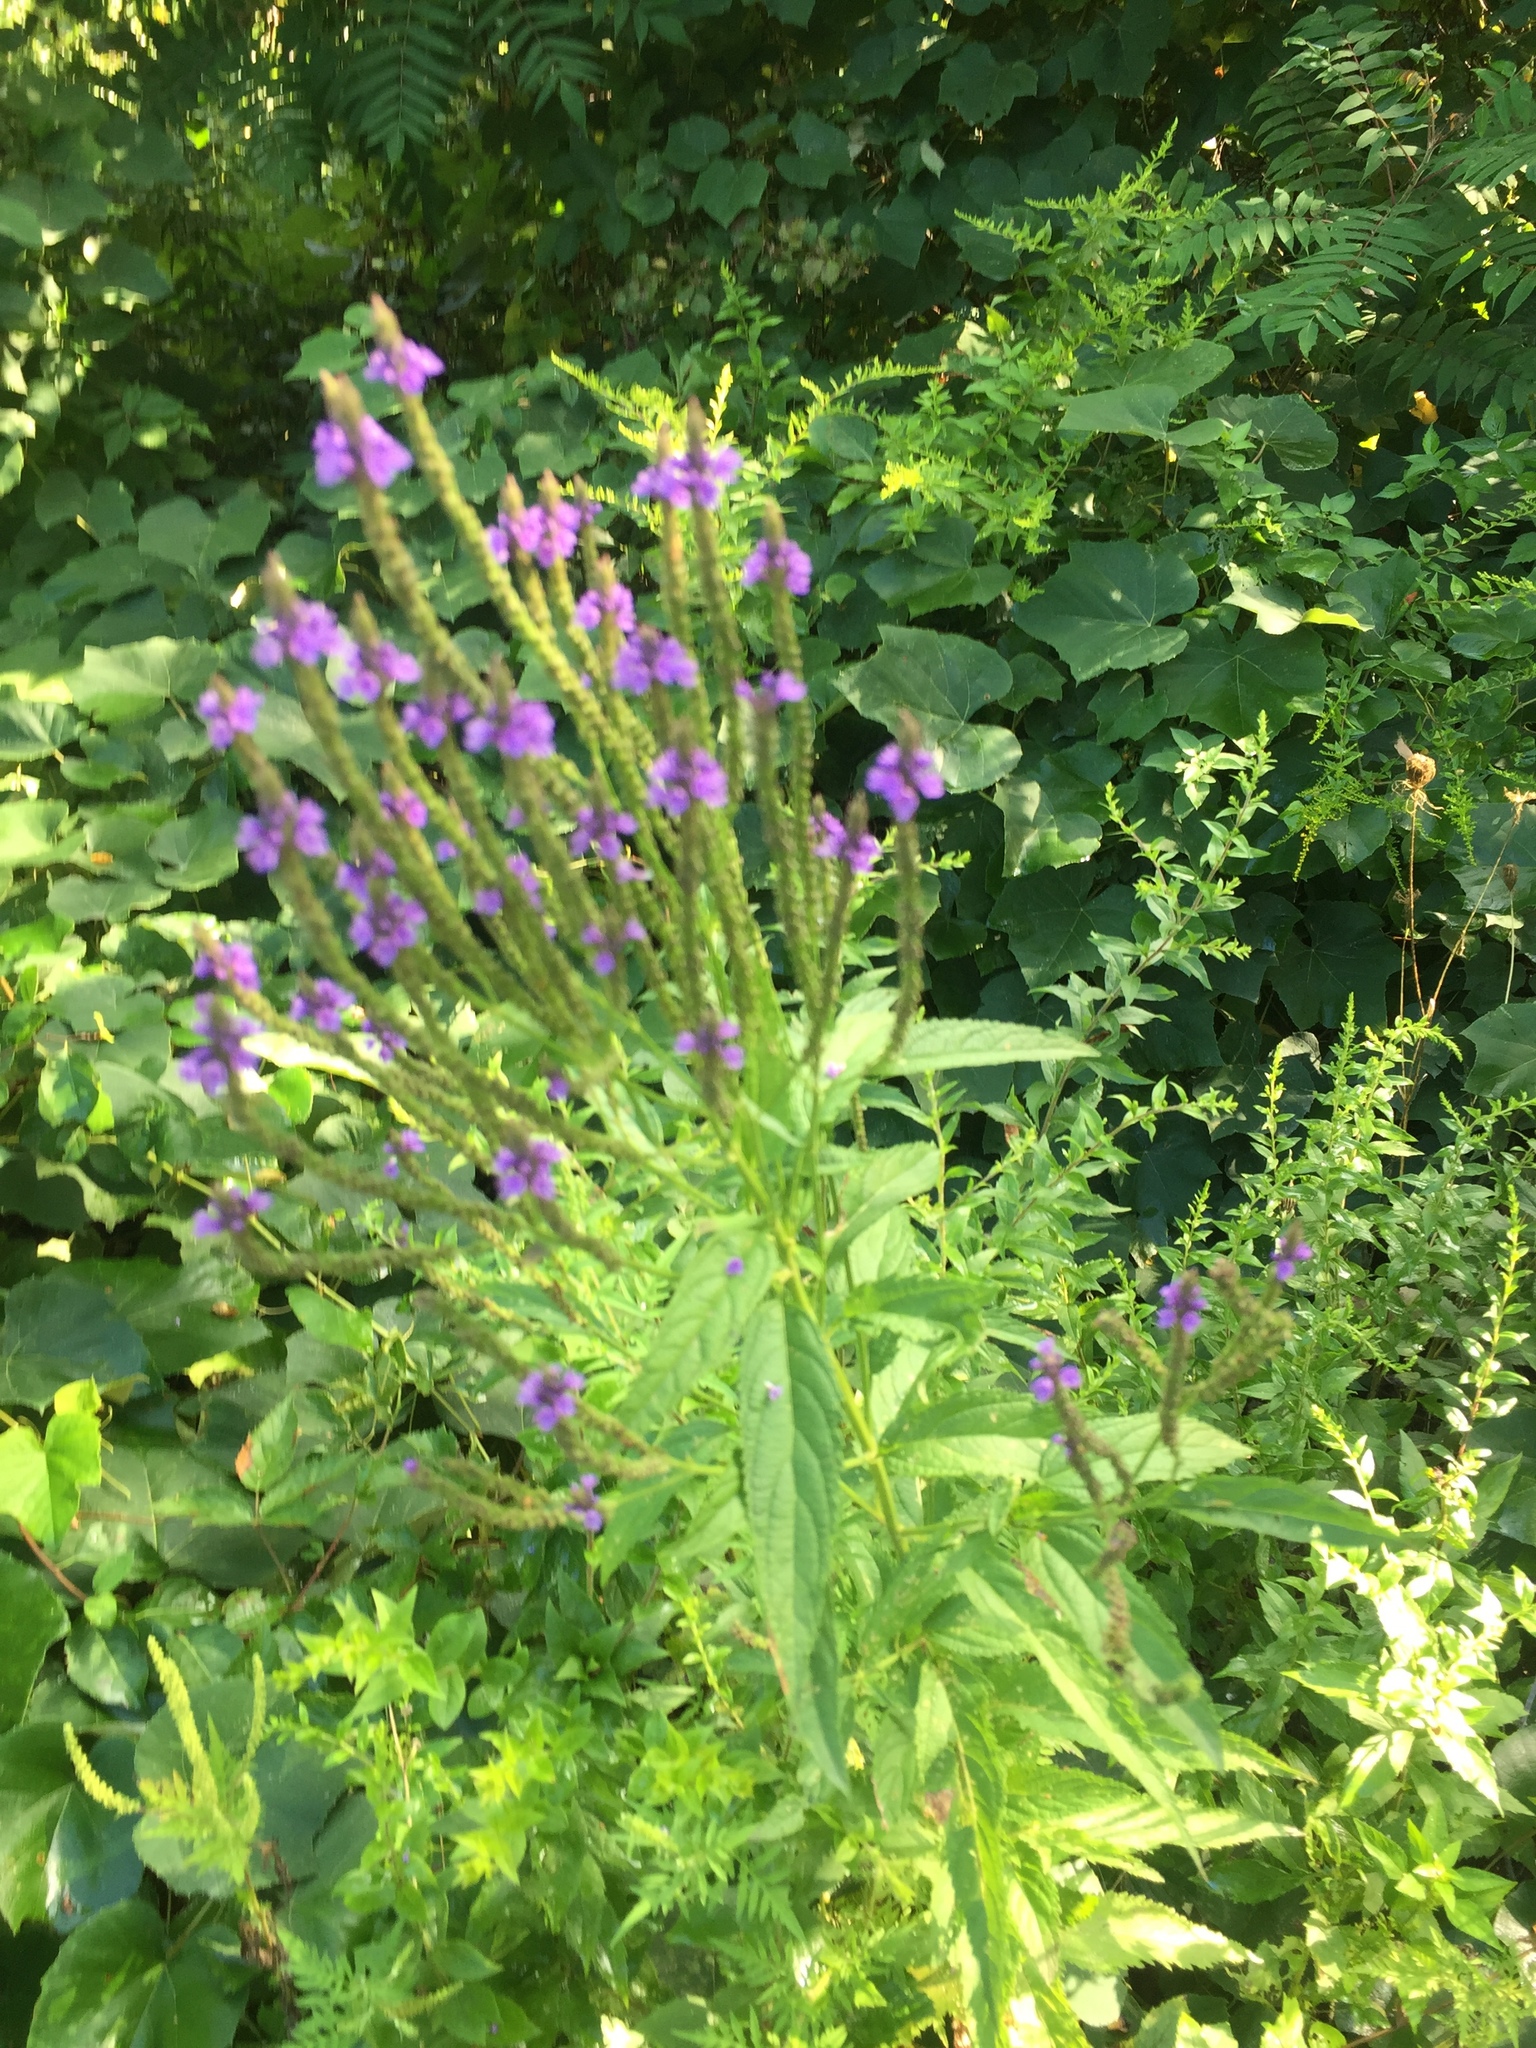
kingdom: Plantae
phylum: Tracheophyta
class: Magnoliopsida
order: Lamiales
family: Verbenaceae
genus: Verbena
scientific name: Verbena hastata
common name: American blue vervain
